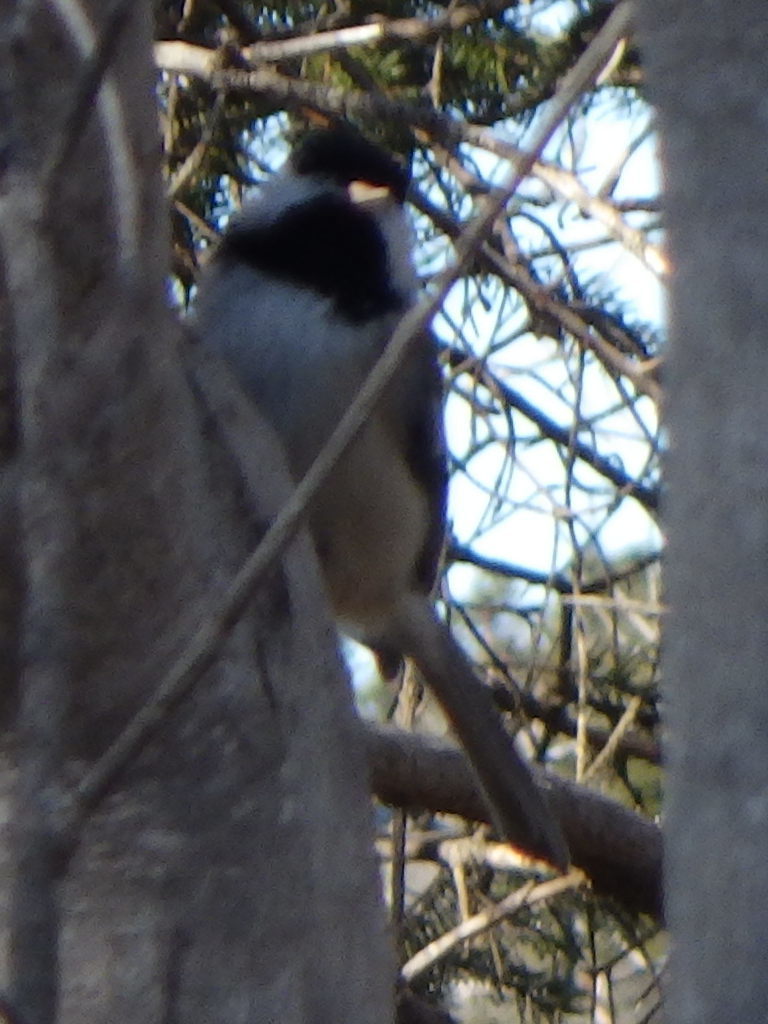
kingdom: Animalia
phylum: Chordata
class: Aves
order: Passeriformes
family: Paridae
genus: Poecile
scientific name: Poecile atricapillus
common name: Black-capped chickadee
